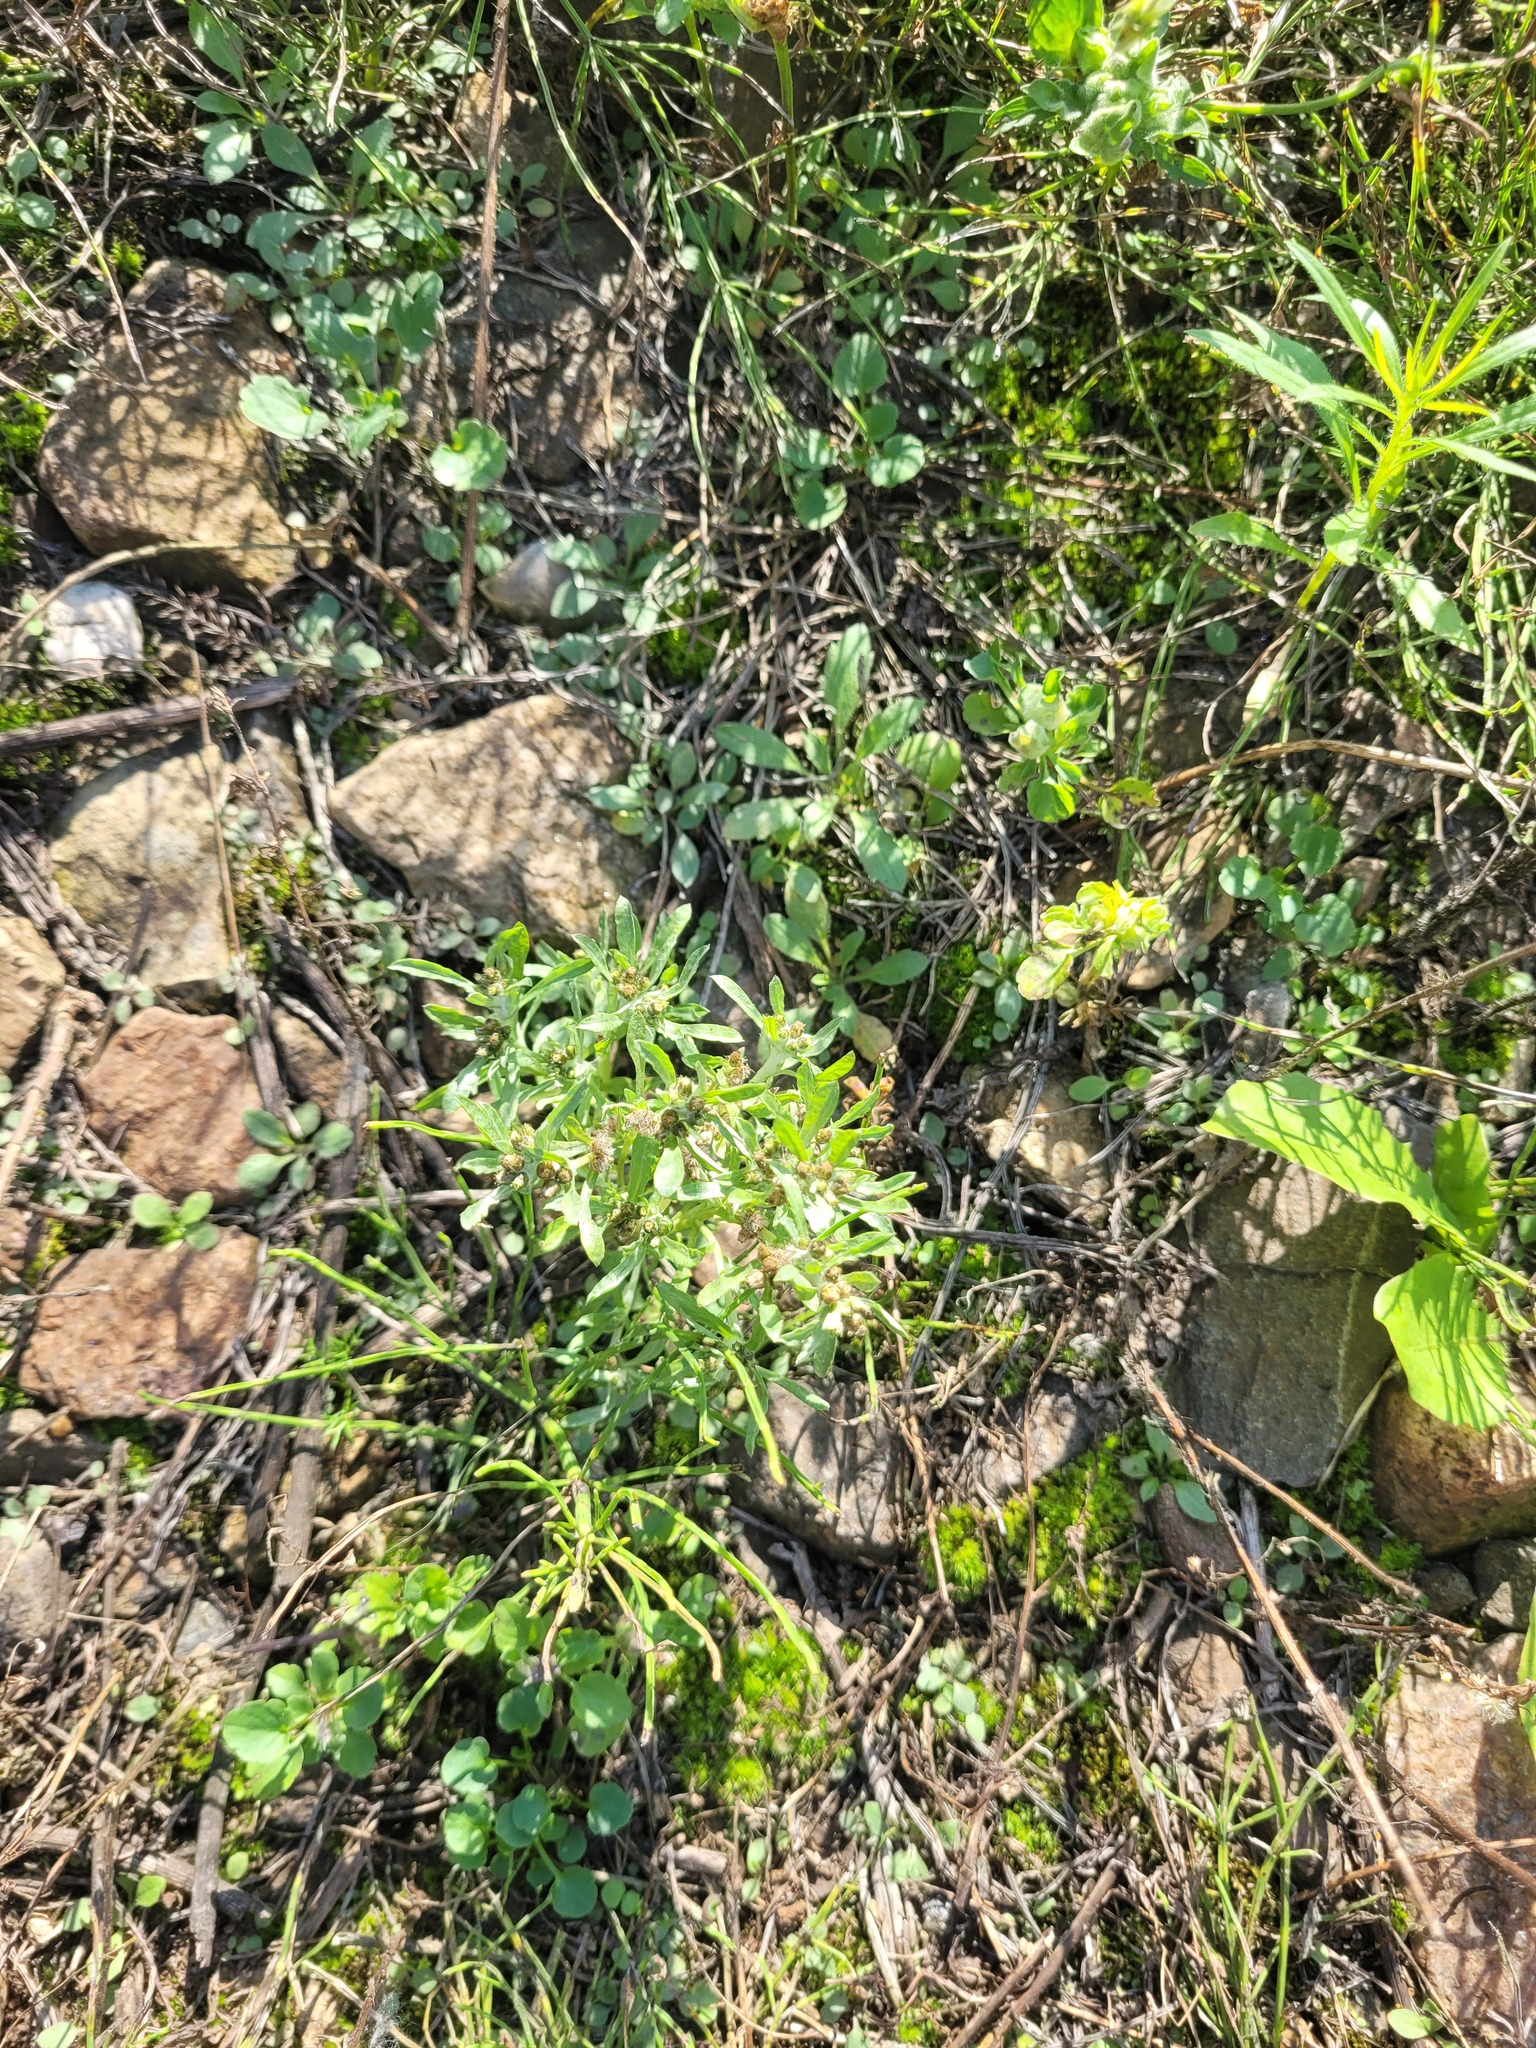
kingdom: Plantae
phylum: Tracheophyta
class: Magnoliopsida
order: Asterales
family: Asteraceae
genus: Gnaphalium
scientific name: Gnaphalium uliginosum
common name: Marsh cudweed
